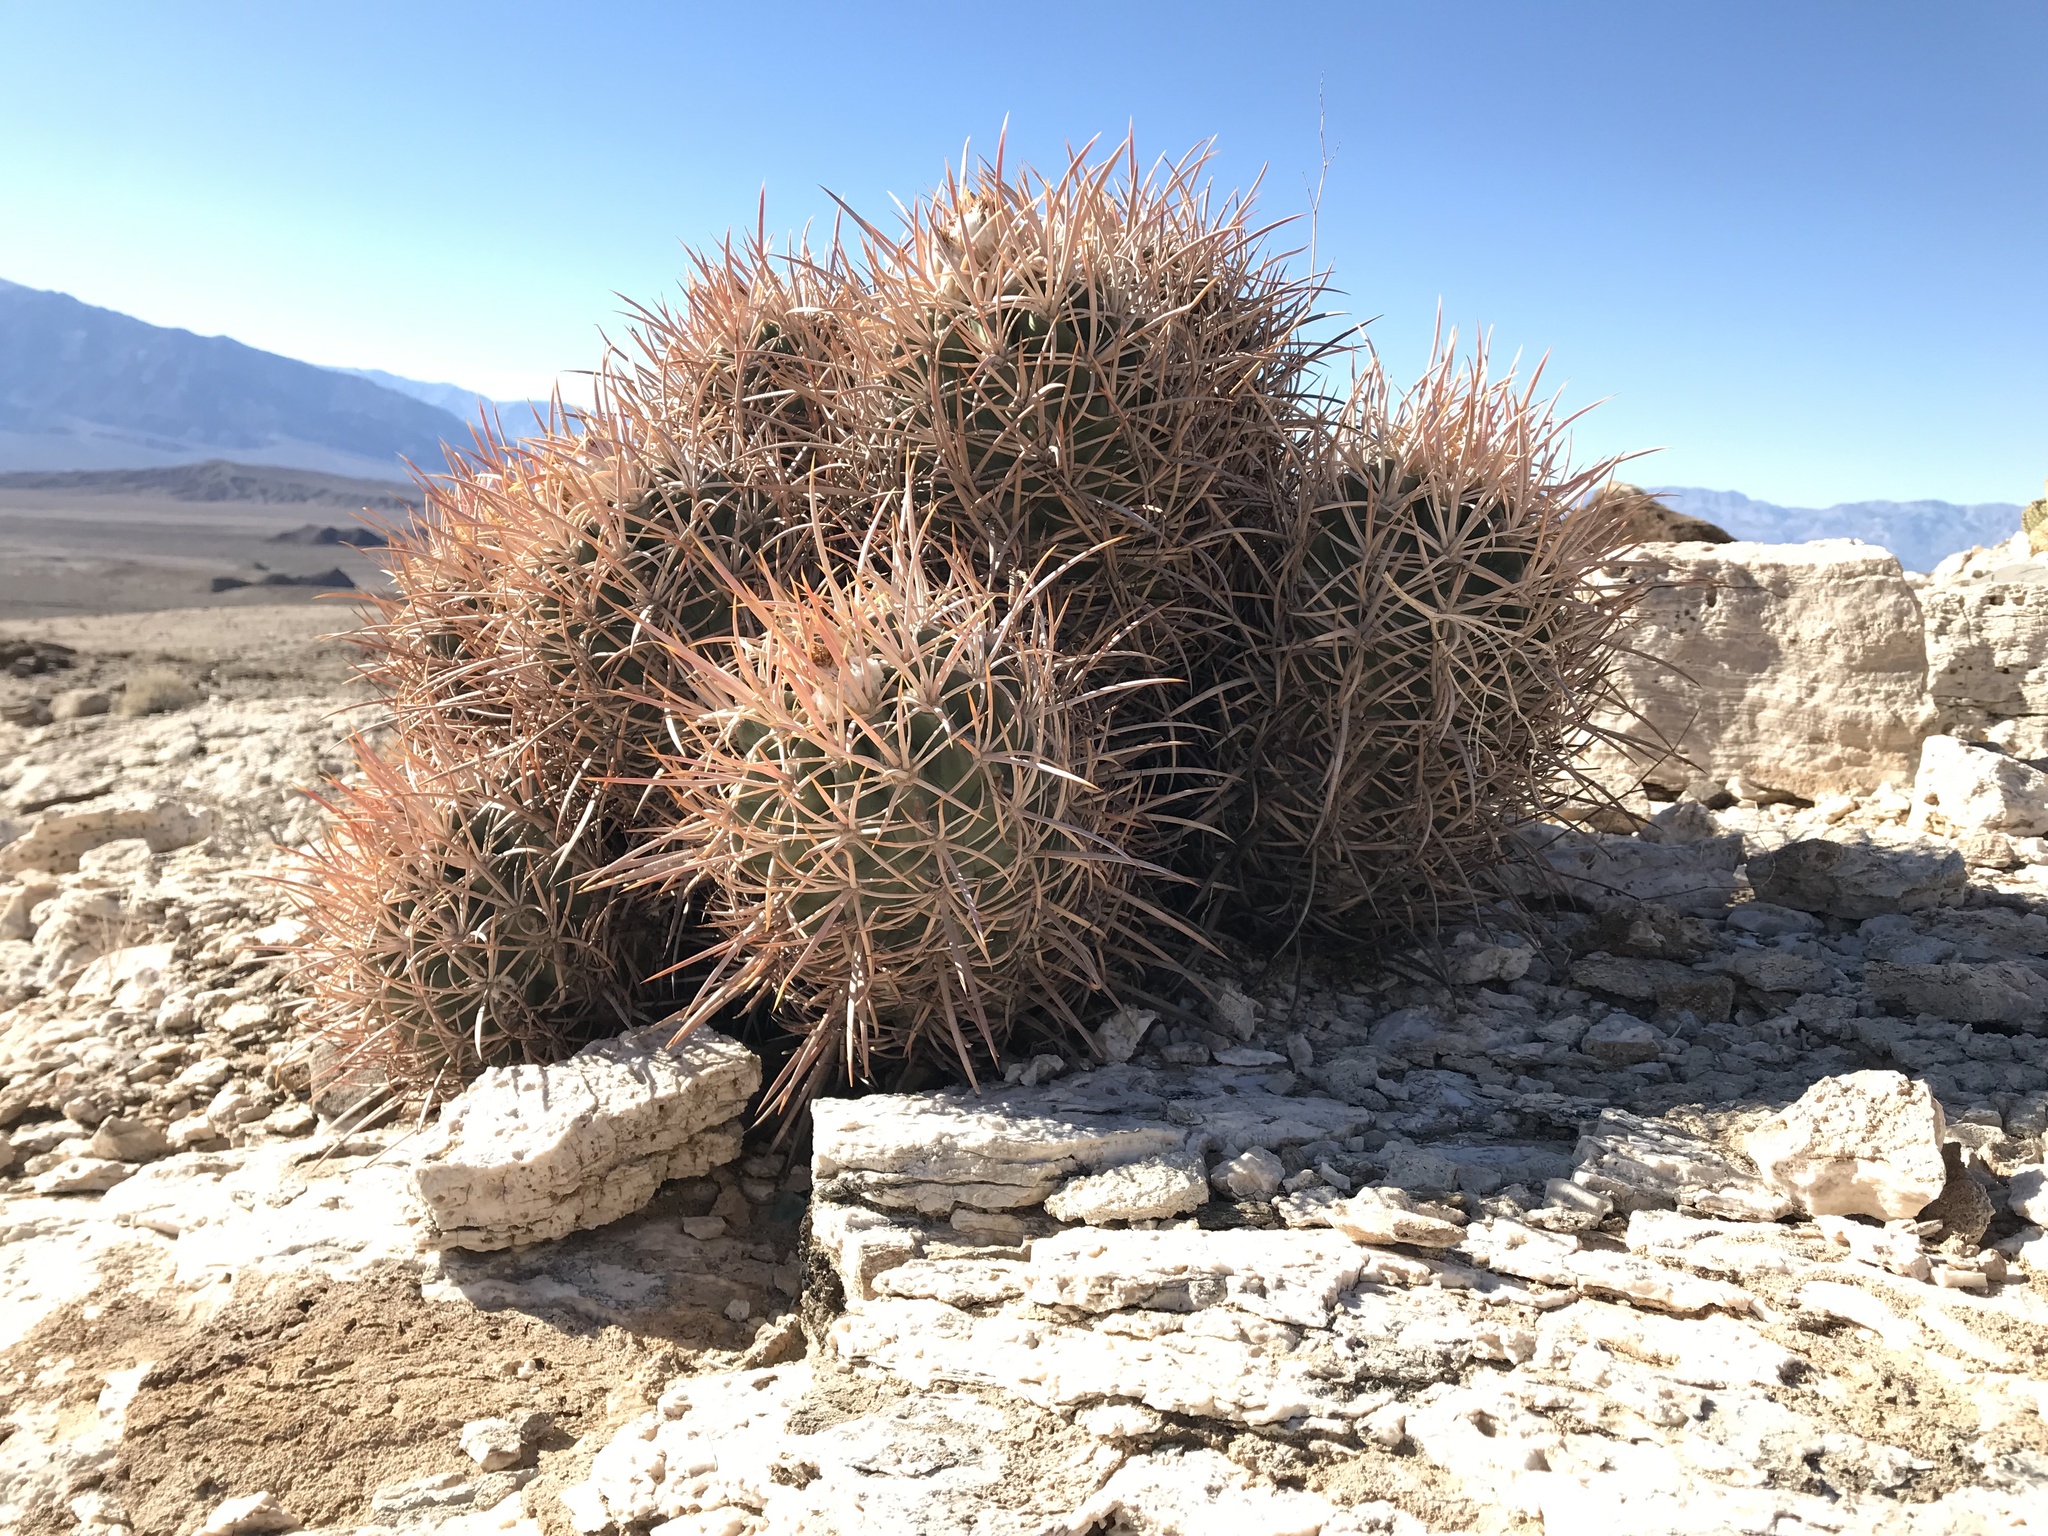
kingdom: Plantae
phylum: Tracheophyta
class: Magnoliopsida
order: Caryophyllales
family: Cactaceae
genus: Echinocactus
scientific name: Echinocactus polycephalus
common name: Cottontop cactus
